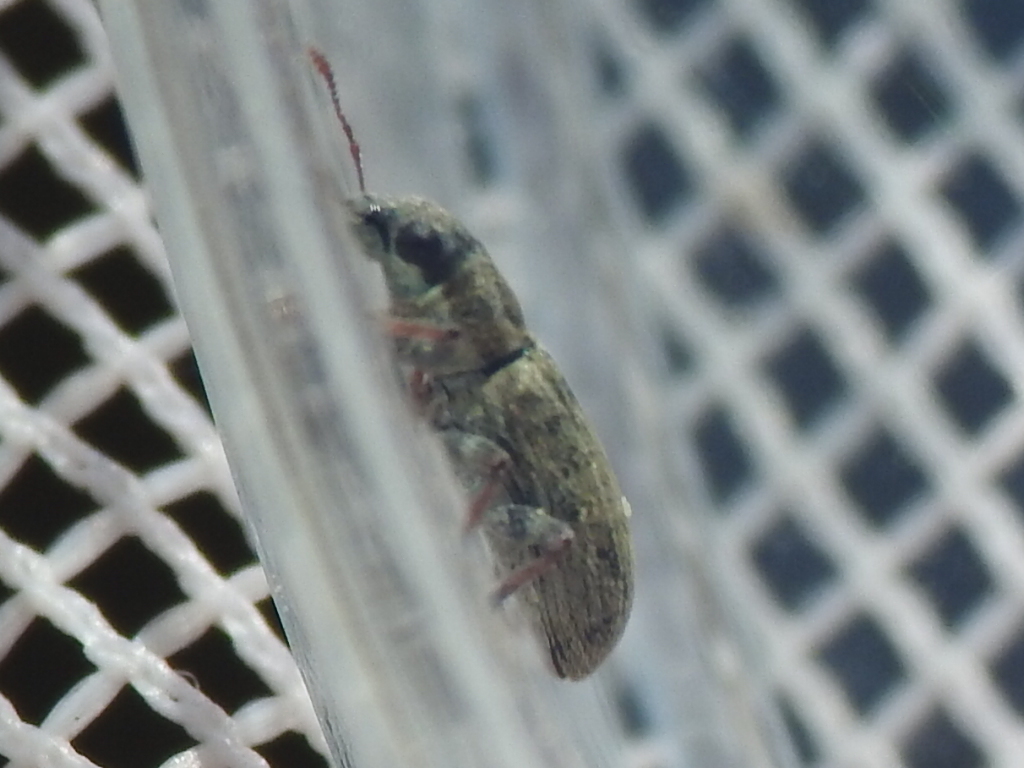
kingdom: Animalia
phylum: Arthropoda
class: Insecta
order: Coleoptera
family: Curculionidae
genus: Sitona
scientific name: Sitona lineatus
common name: Weevil
